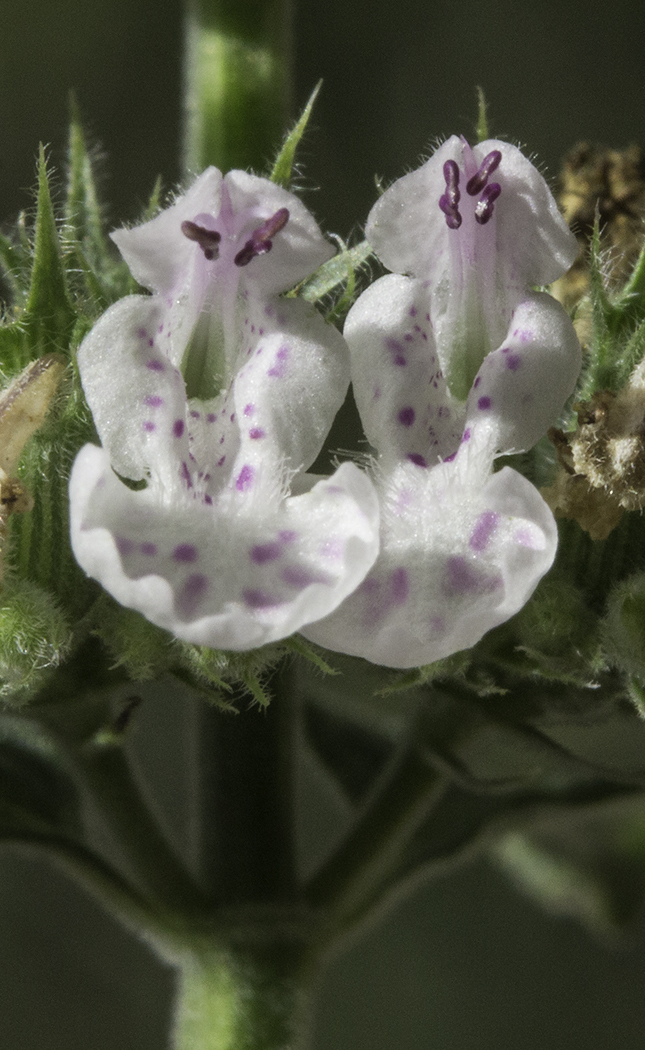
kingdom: Plantae
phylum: Tracheophyta
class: Magnoliopsida
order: Lamiales
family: Lamiaceae
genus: Nepeta
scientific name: Nepeta cataria
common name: Catnip
